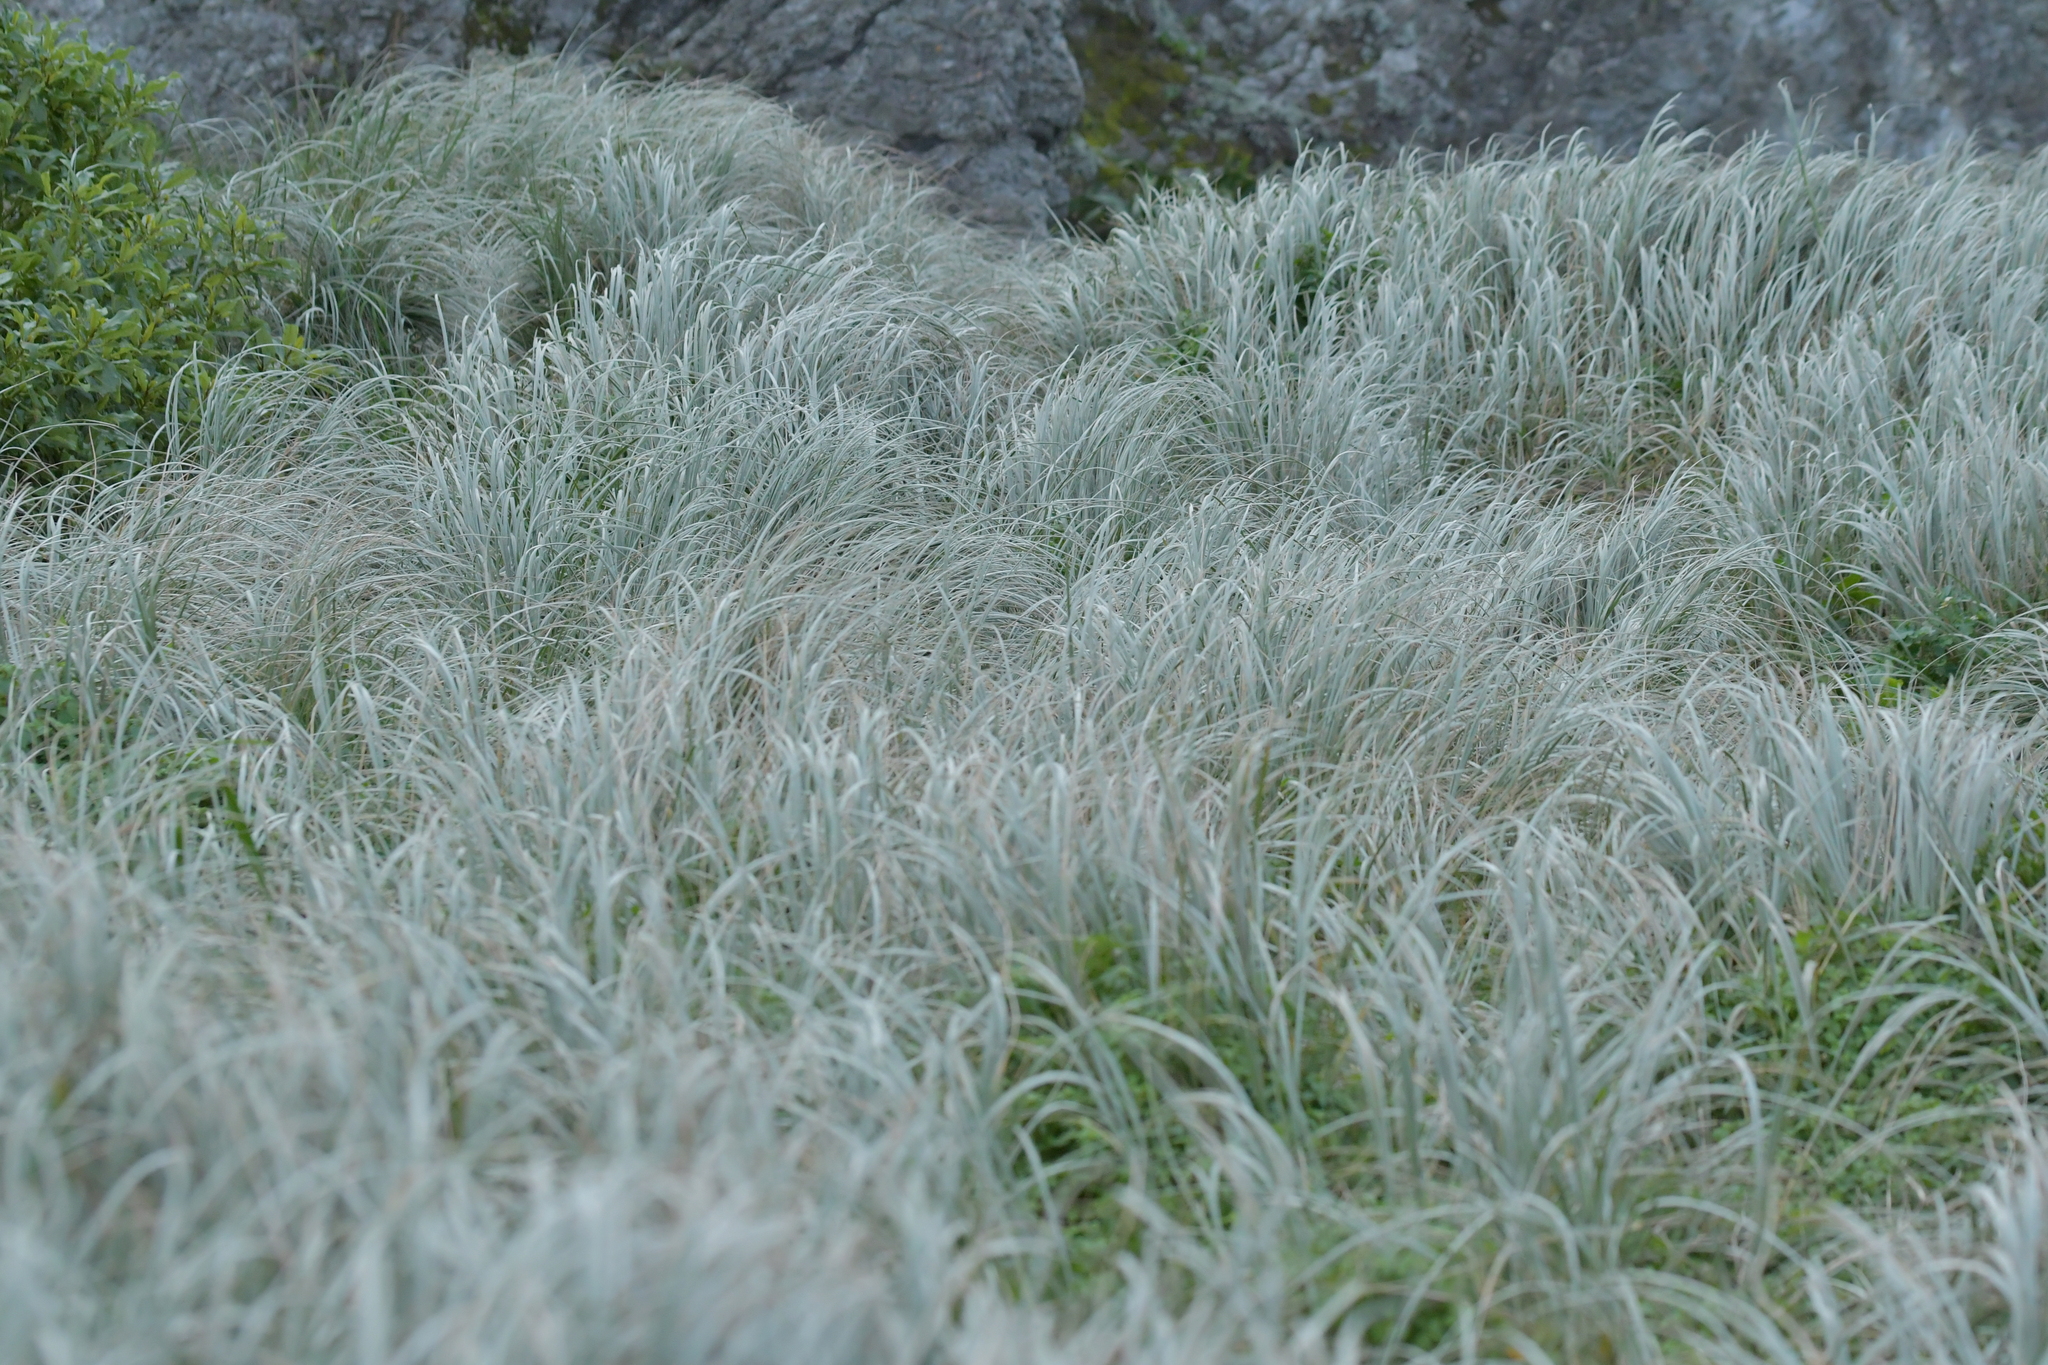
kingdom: Plantae
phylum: Tracheophyta
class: Liliopsida
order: Poales
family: Poaceae
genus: Spinifex
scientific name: Spinifex sericeus
